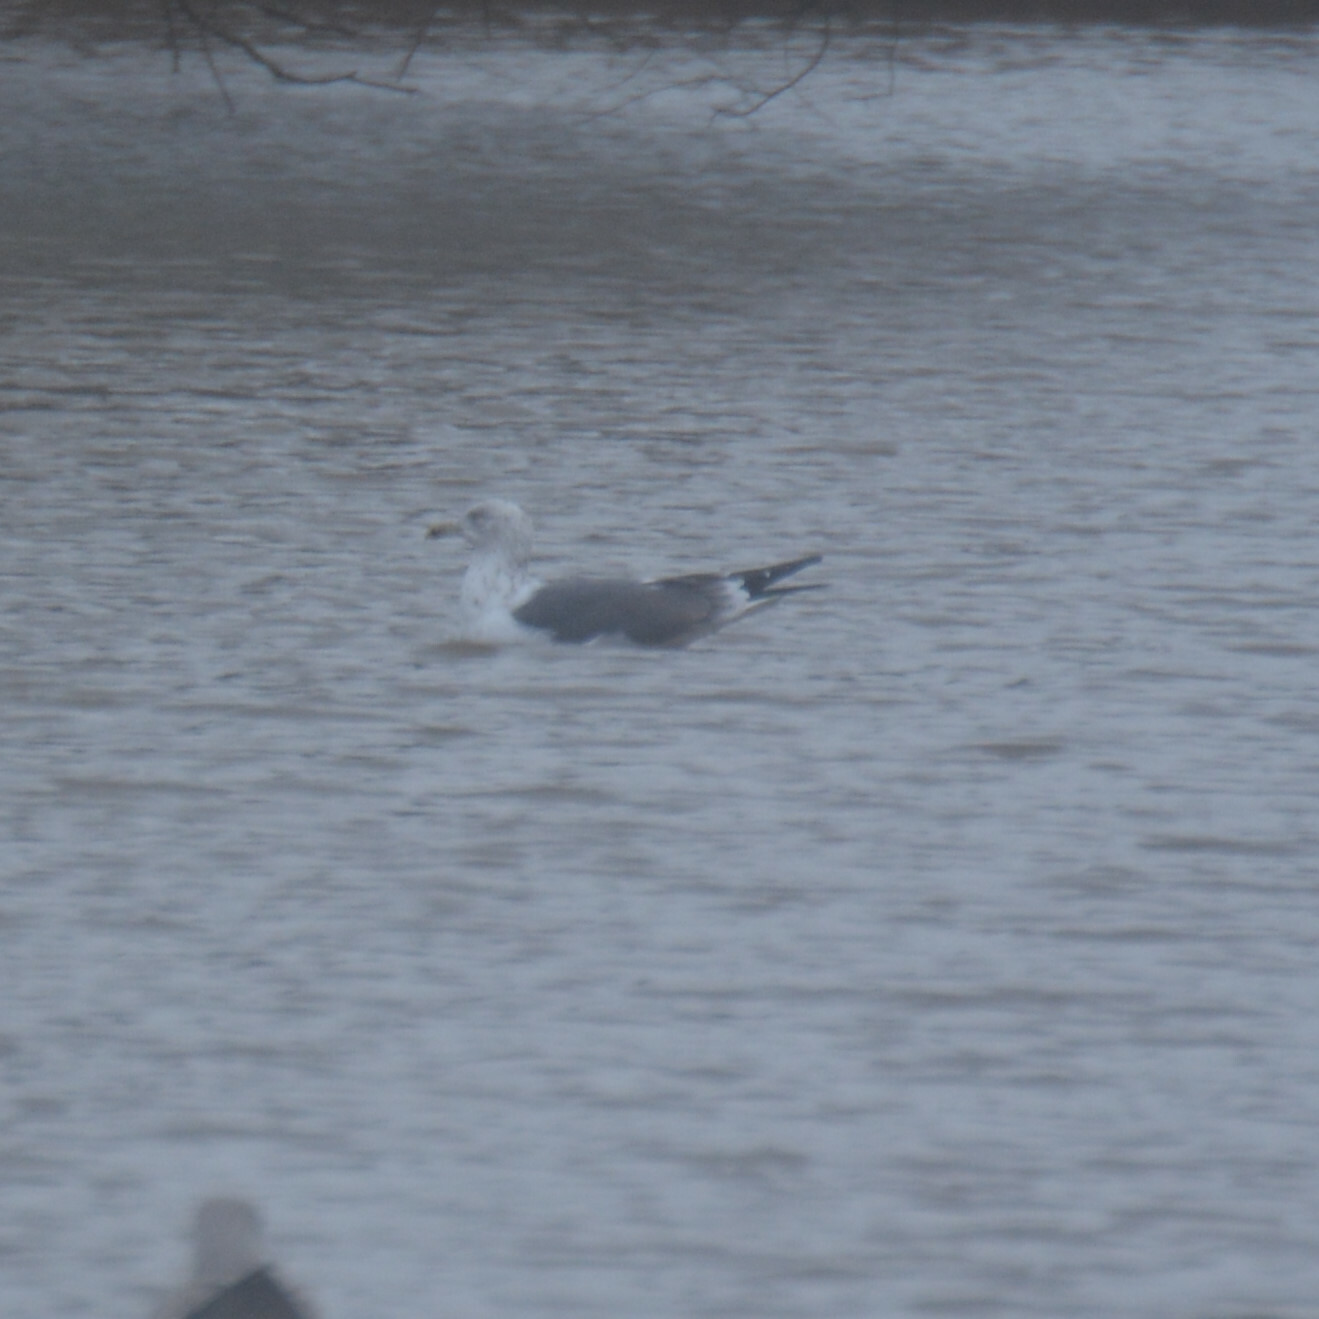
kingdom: Animalia
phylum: Chordata
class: Aves
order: Charadriiformes
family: Laridae
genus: Larus
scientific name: Larus fuscus
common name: Lesser black-backed gull
